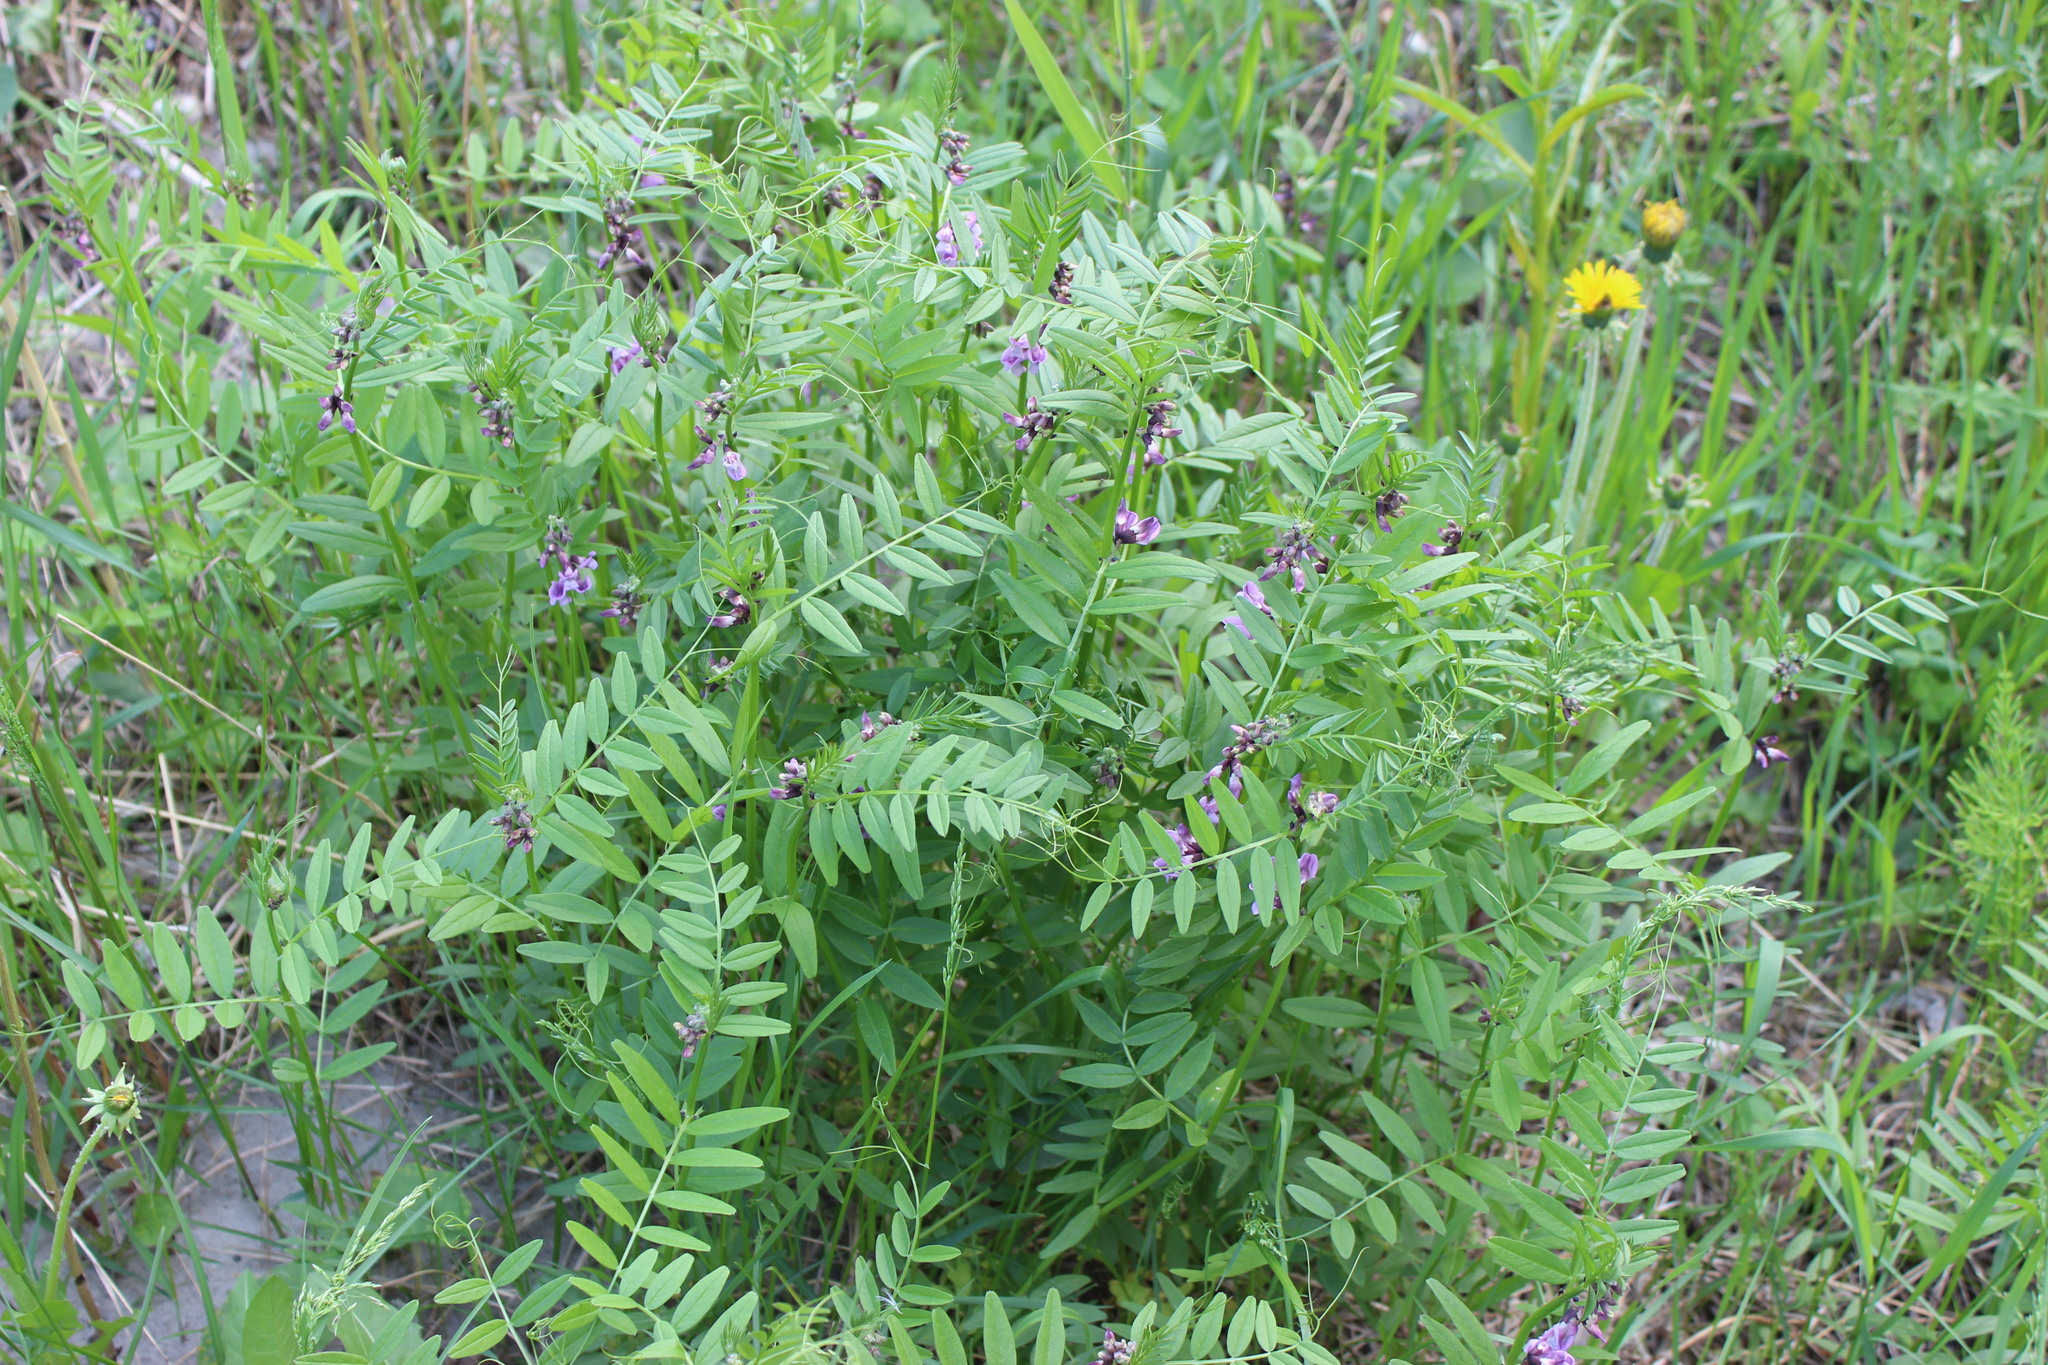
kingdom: Plantae
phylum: Tracheophyta
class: Magnoliopsida
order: Fabales
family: Fabaceae
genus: Vicia
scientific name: Vicia sepium
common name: Bush vetch
